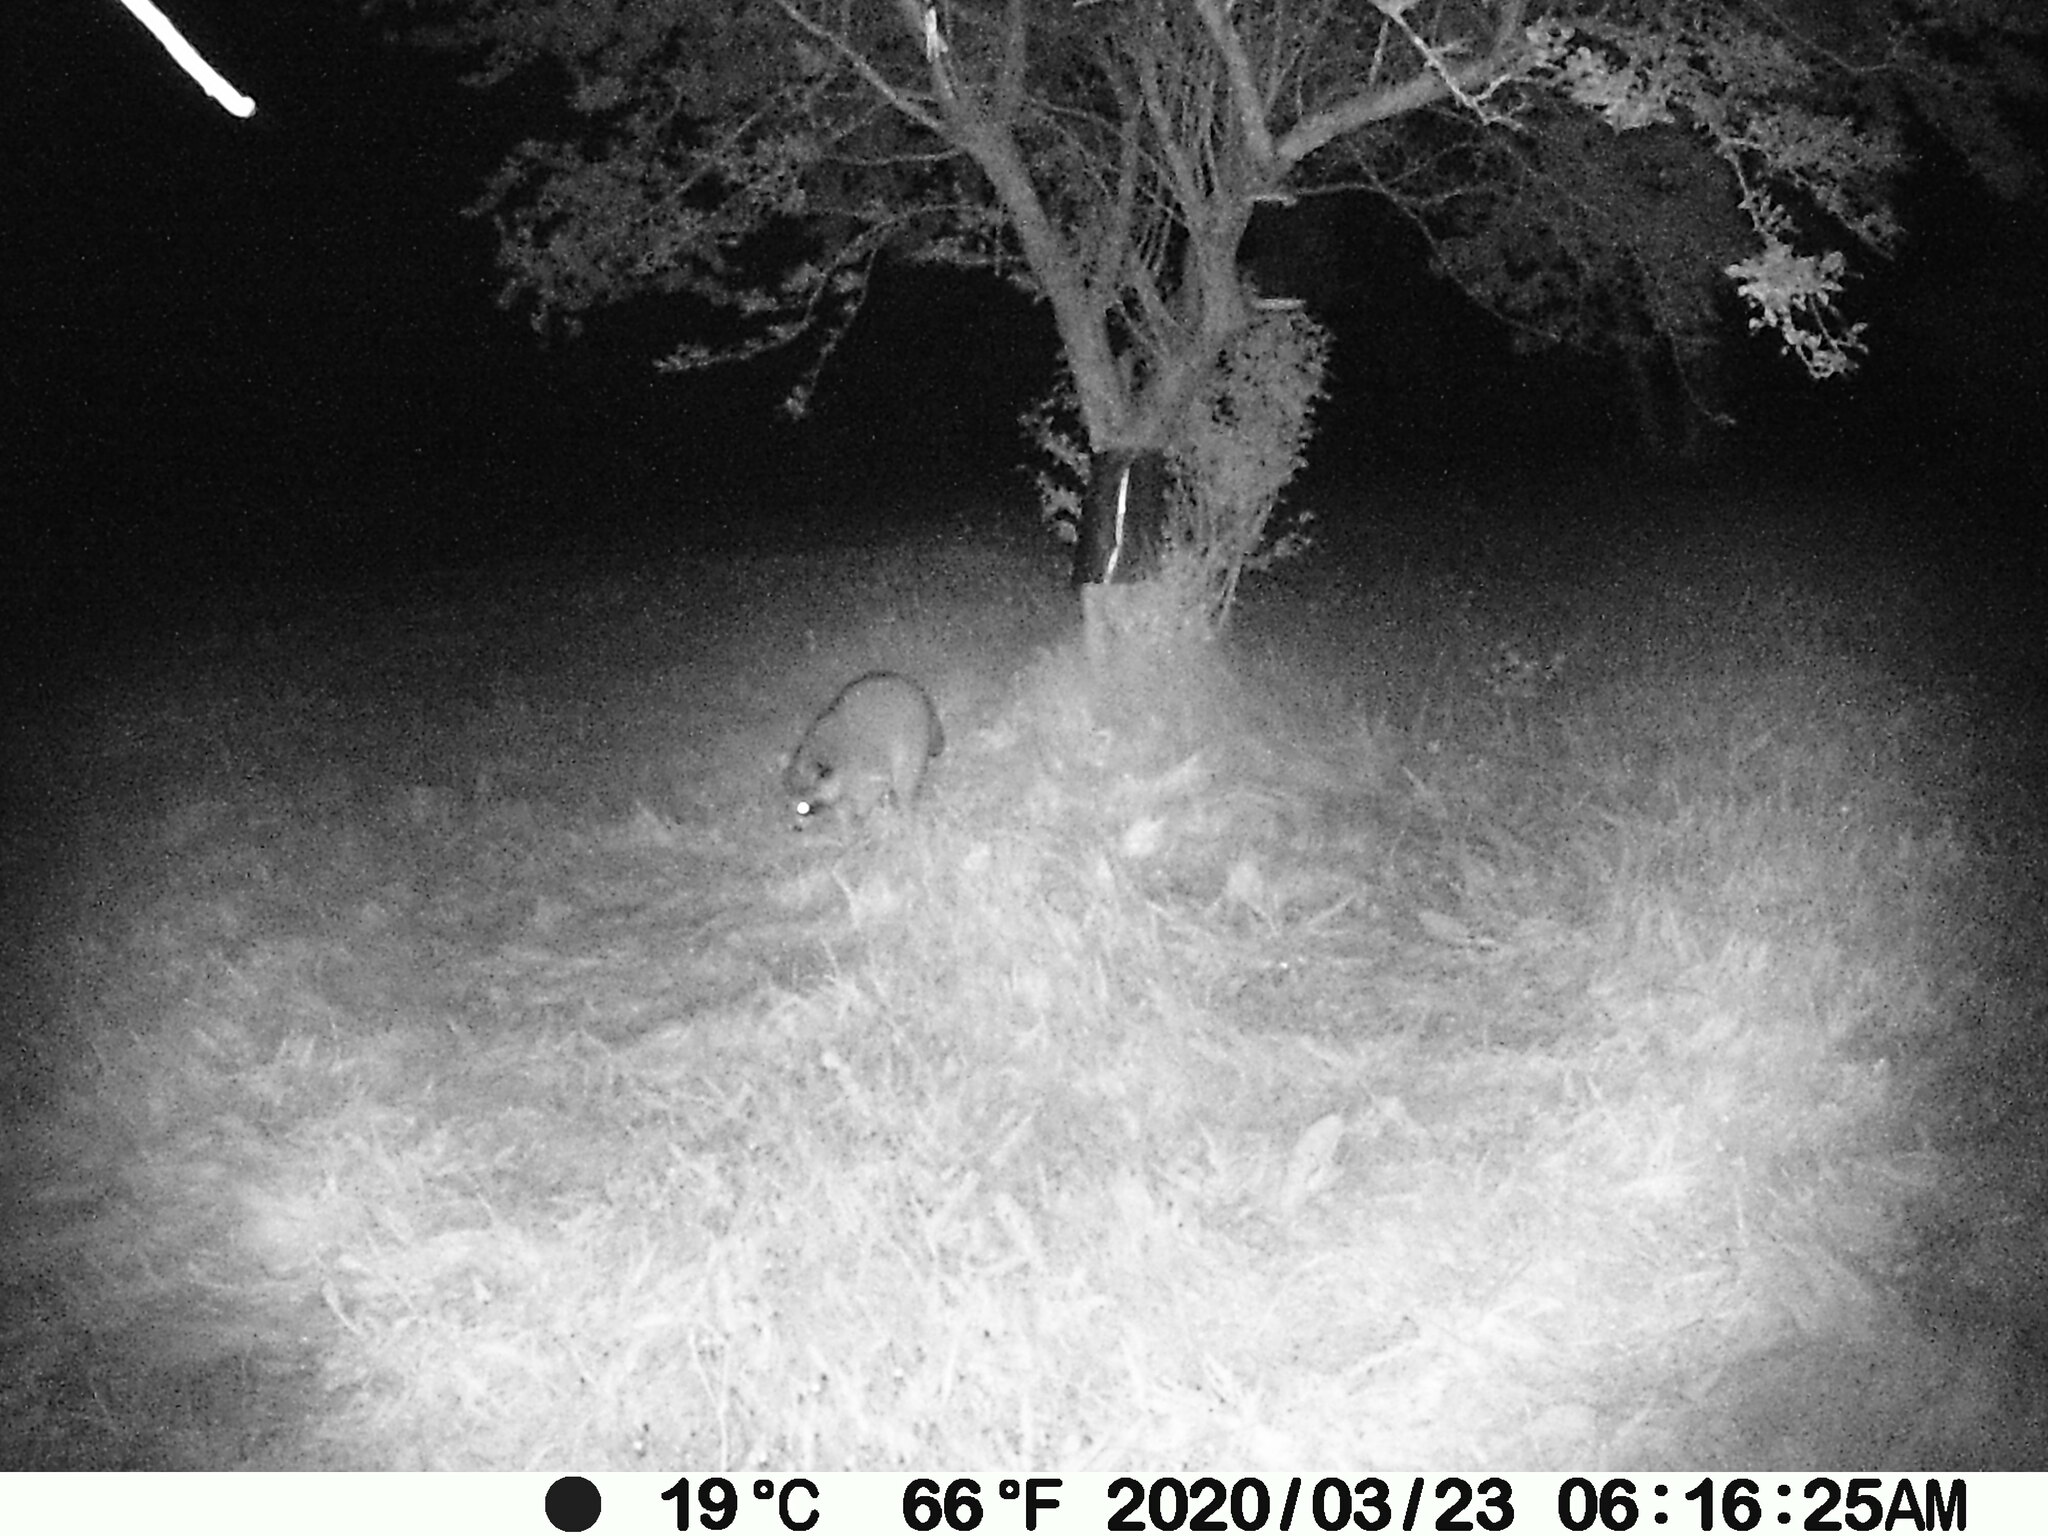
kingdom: Animalia
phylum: Chordata
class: Mammalia
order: Carnivora
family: Procyonidae
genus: Procyon
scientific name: Procyon lotor
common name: Raccoon
